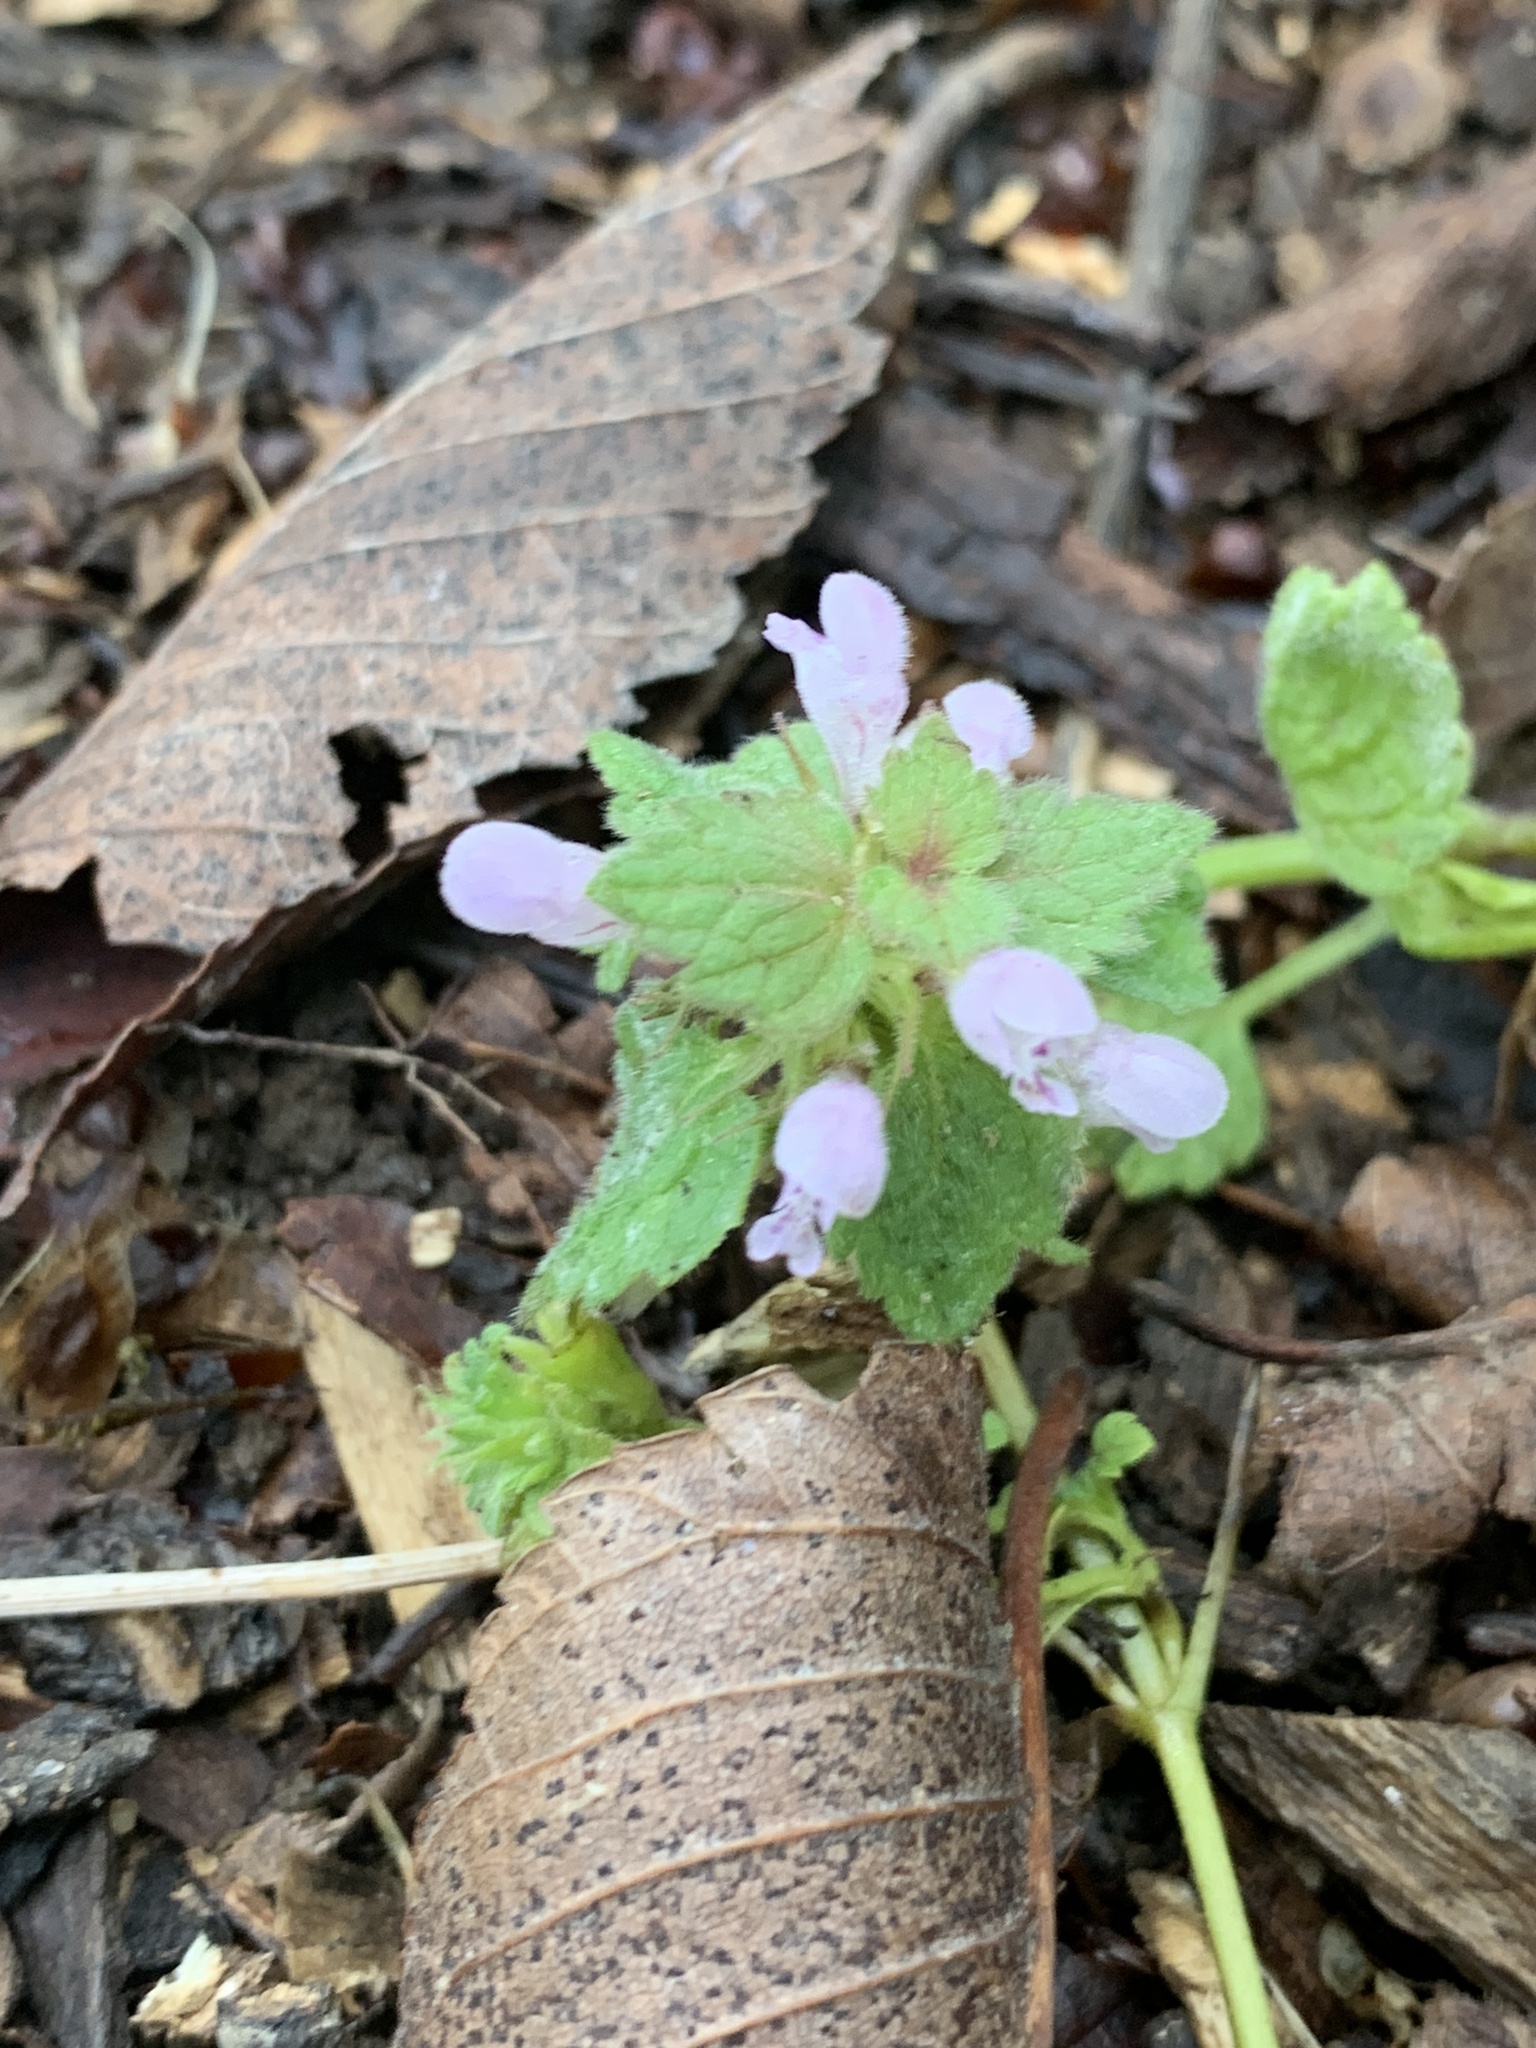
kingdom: Plantae
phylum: Tracheophyta
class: Magnoliopsida
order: Lamiales
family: Lamiaceae
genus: Lamium
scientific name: Lamium purpureum
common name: Red dead-nettle
